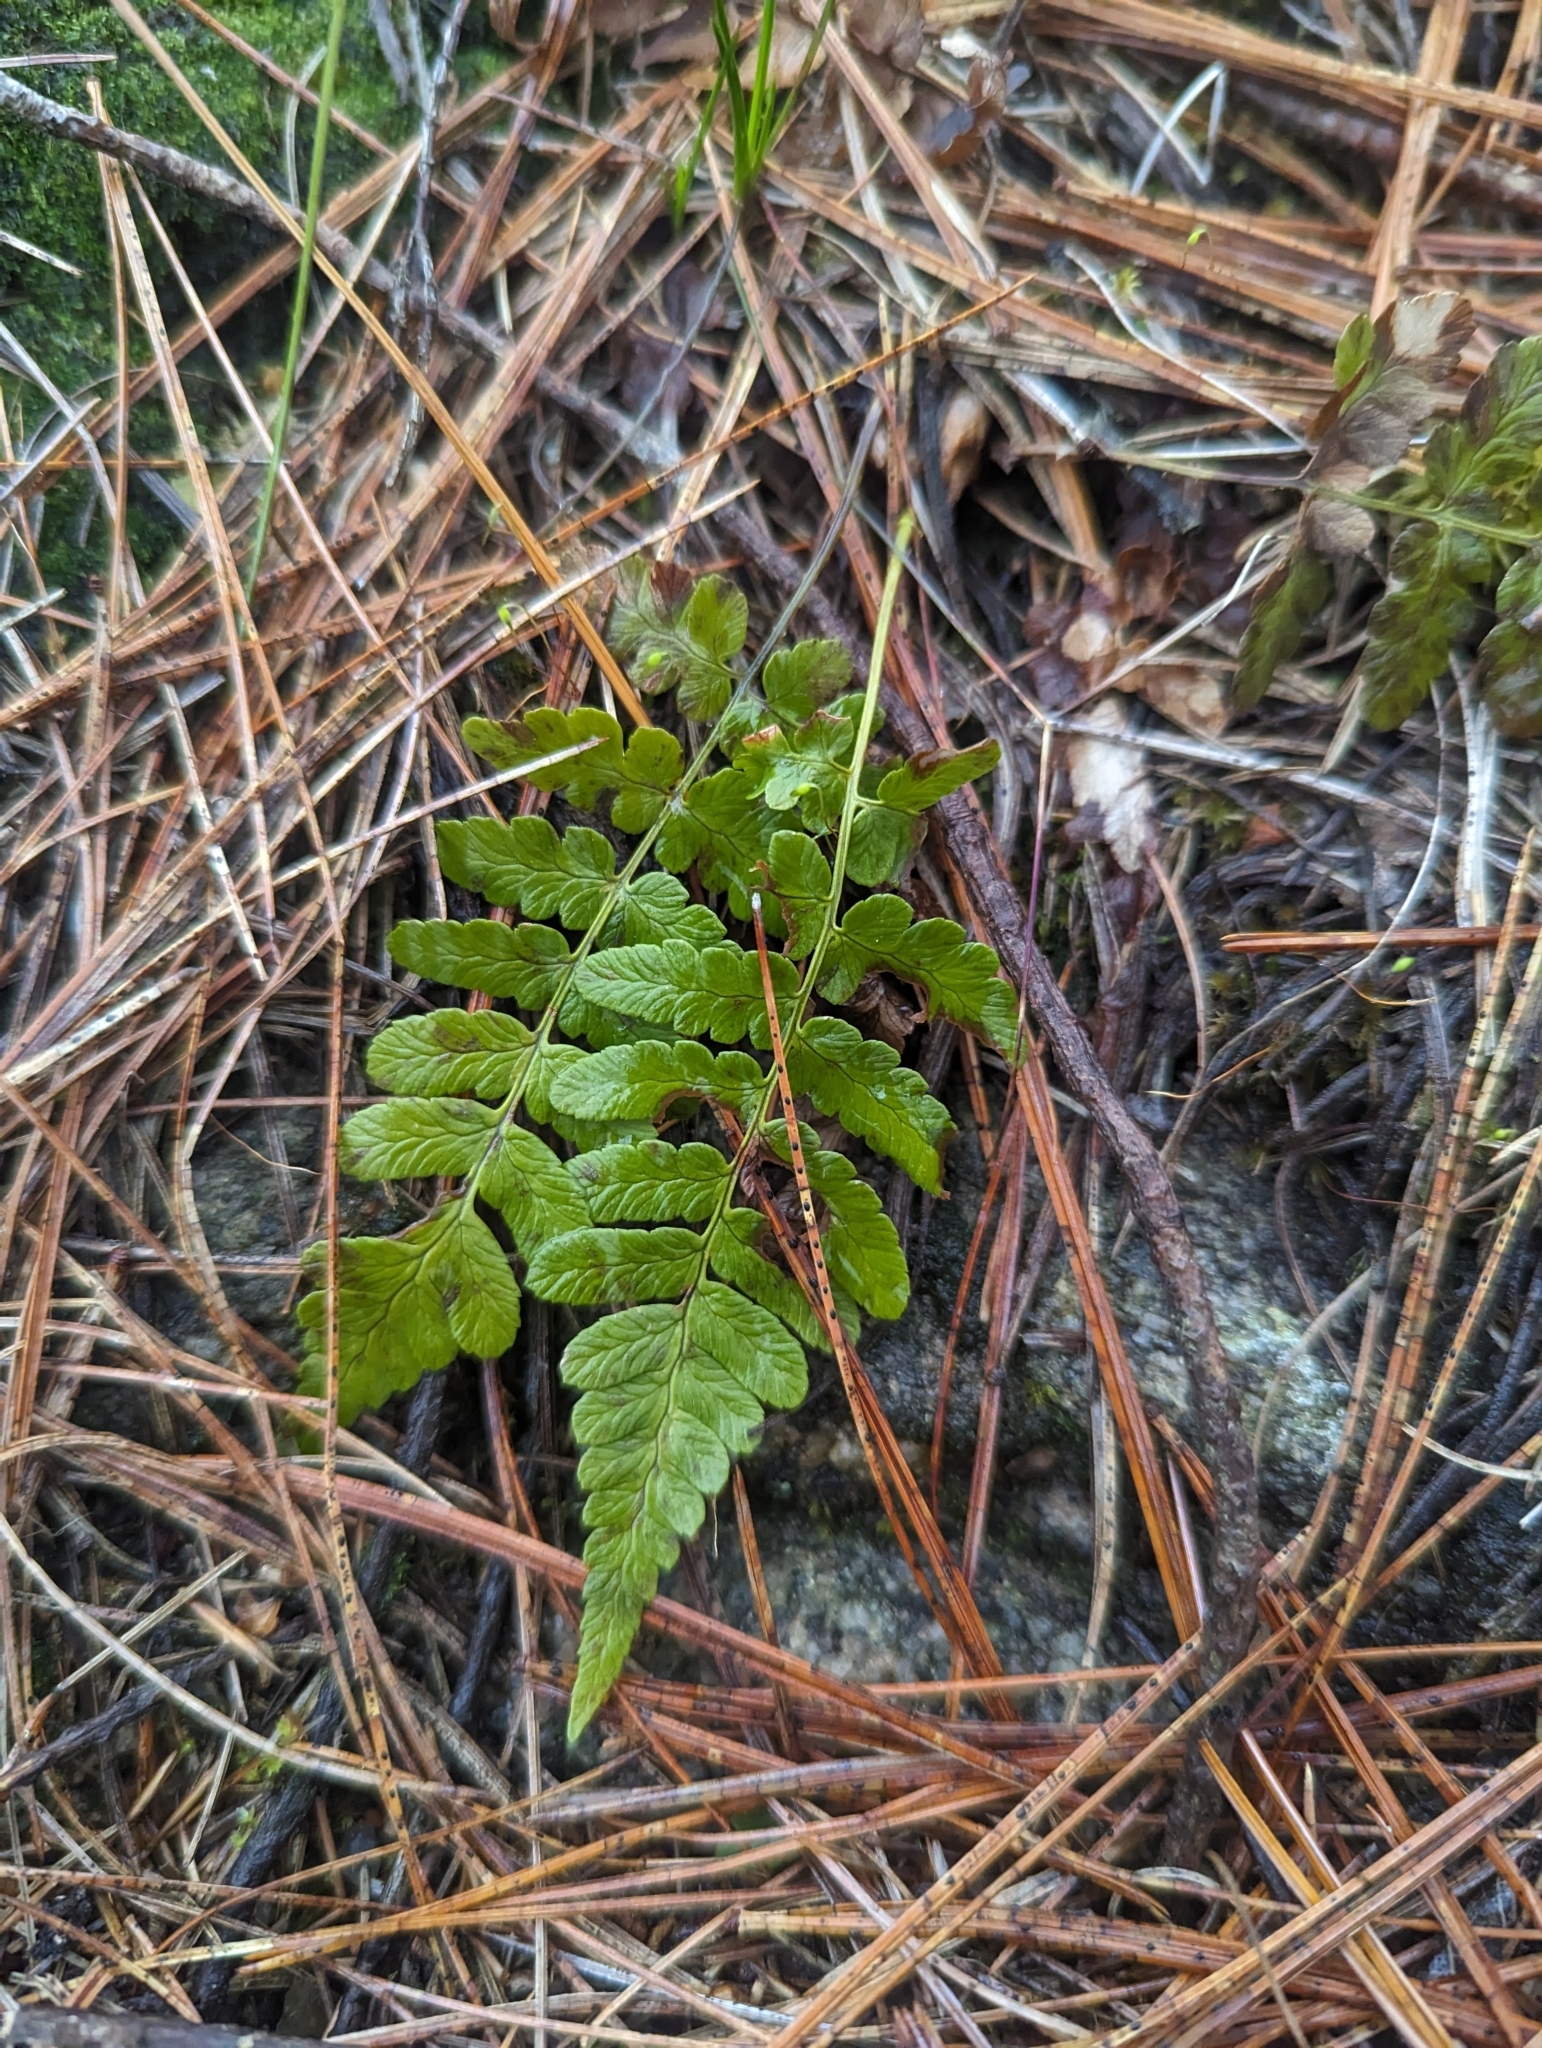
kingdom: Plantae
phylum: Tracheophyta
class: Polypodiopsida
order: Polypodiales
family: Dryopteridaceae
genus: Dryopteris
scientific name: Dryopteris marginalis
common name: Marginal wood fern
